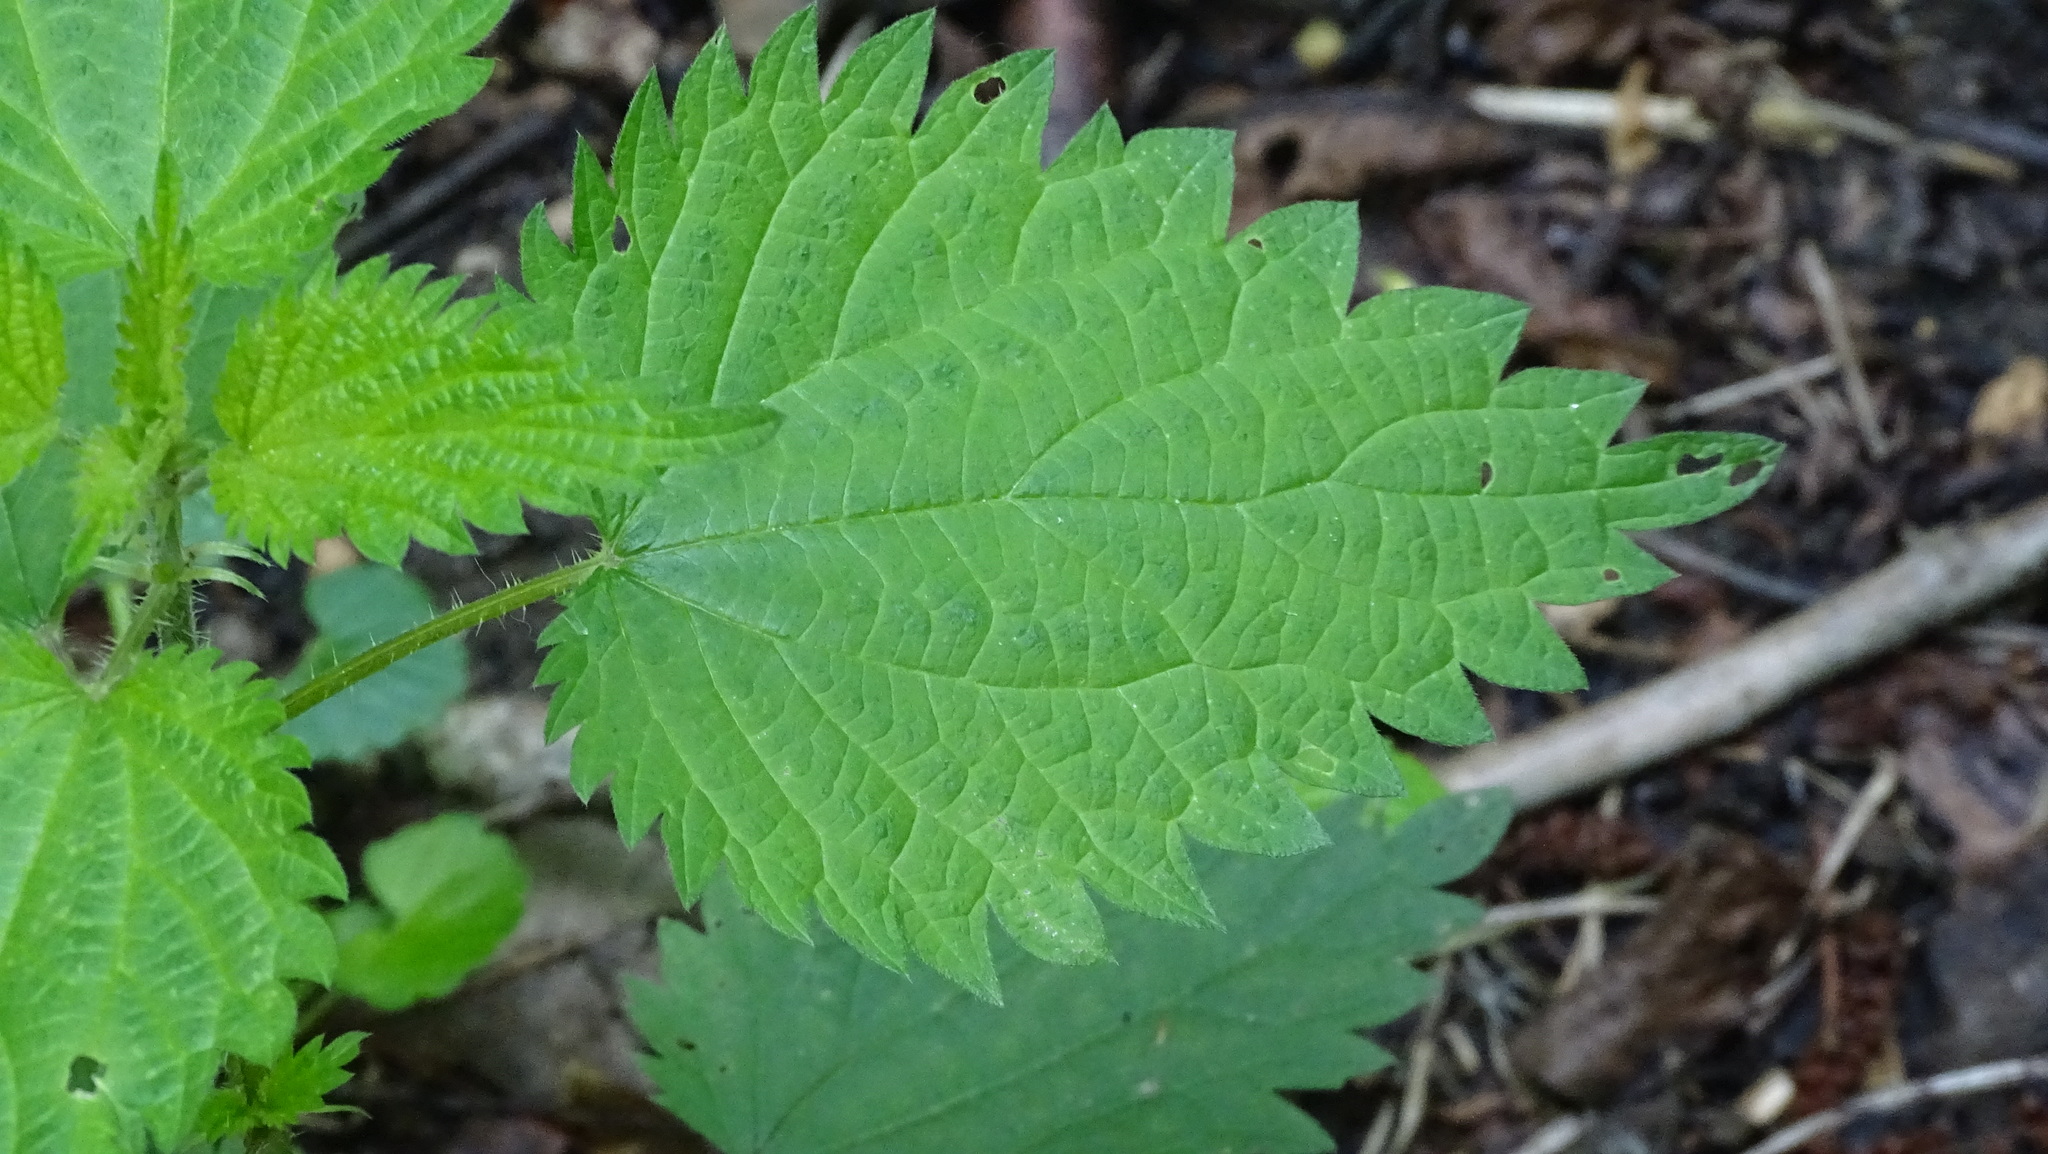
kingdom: Plantae
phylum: Tracheophyta
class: Magnoliopsida
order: Rosales
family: Urticaceae
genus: Urtica
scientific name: Urtica dioica
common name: Common nettle
